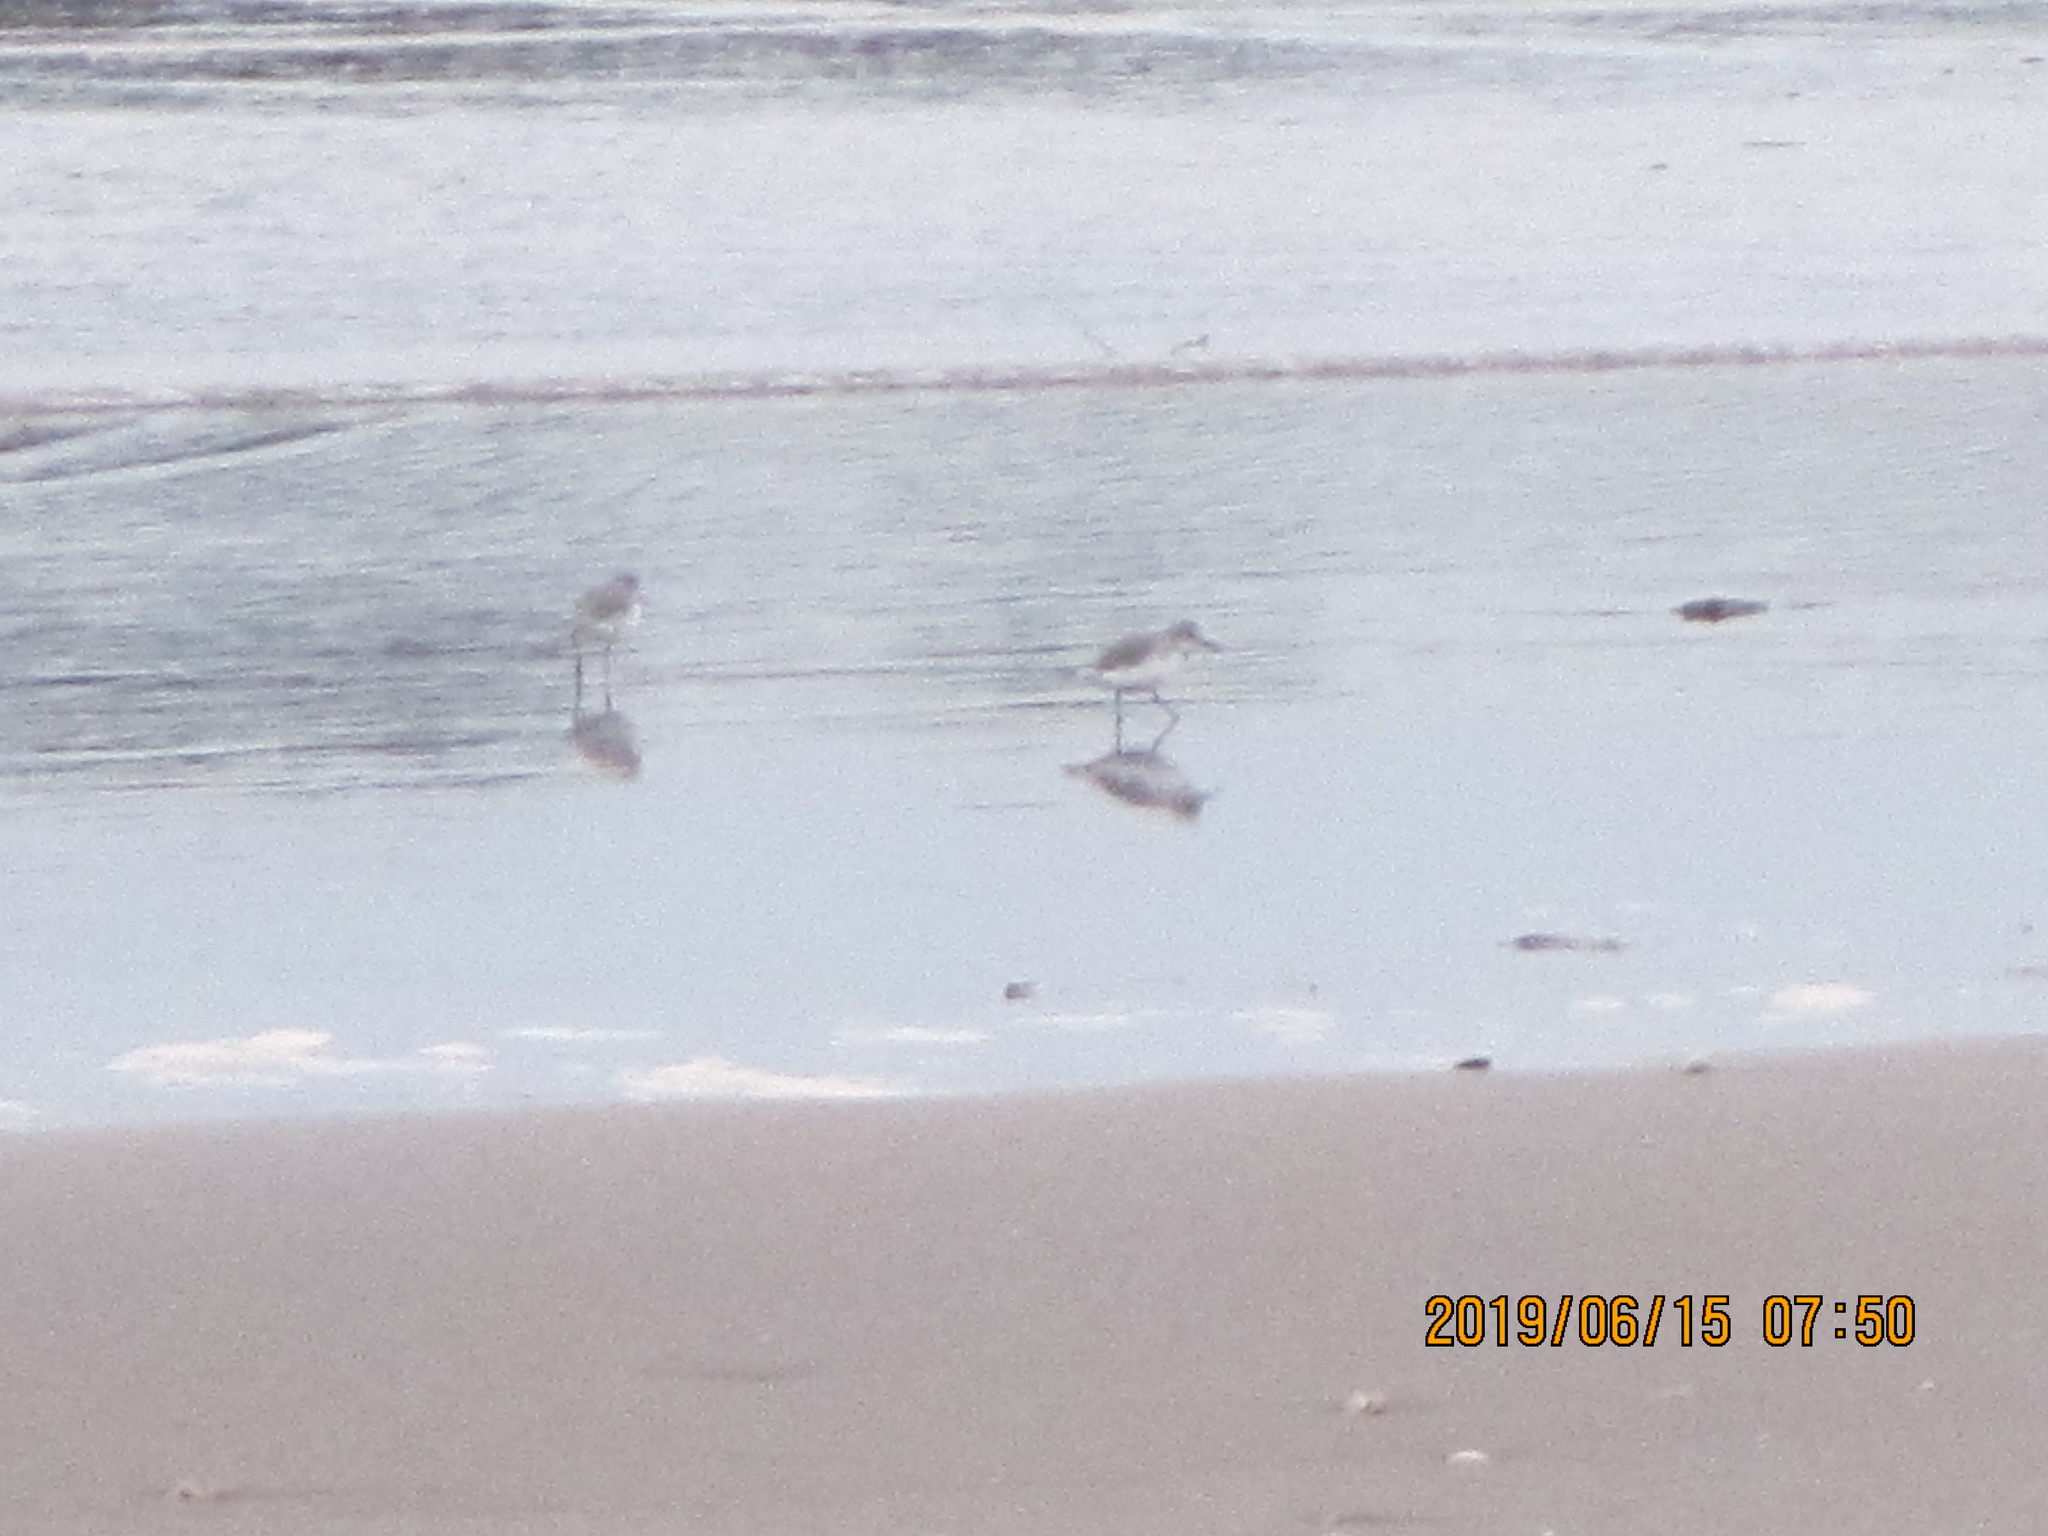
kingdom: Animalia
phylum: Chordata
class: Aves
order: Charadriiformes
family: Charadriidae
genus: Anarhynchus
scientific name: Anarhynchus frontalis
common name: Wrybill
